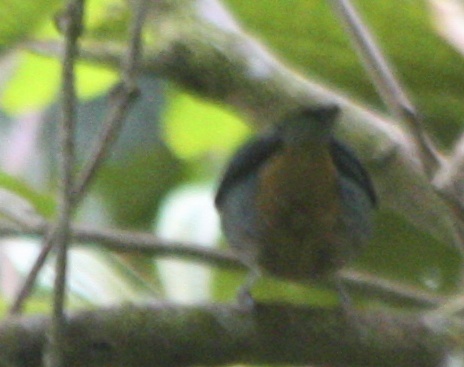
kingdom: Animalia
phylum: Chordata
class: Aves
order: Passeriformes
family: Thraupidae
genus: Tangara
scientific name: Tangara labradorides
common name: Metallic-green tanager
